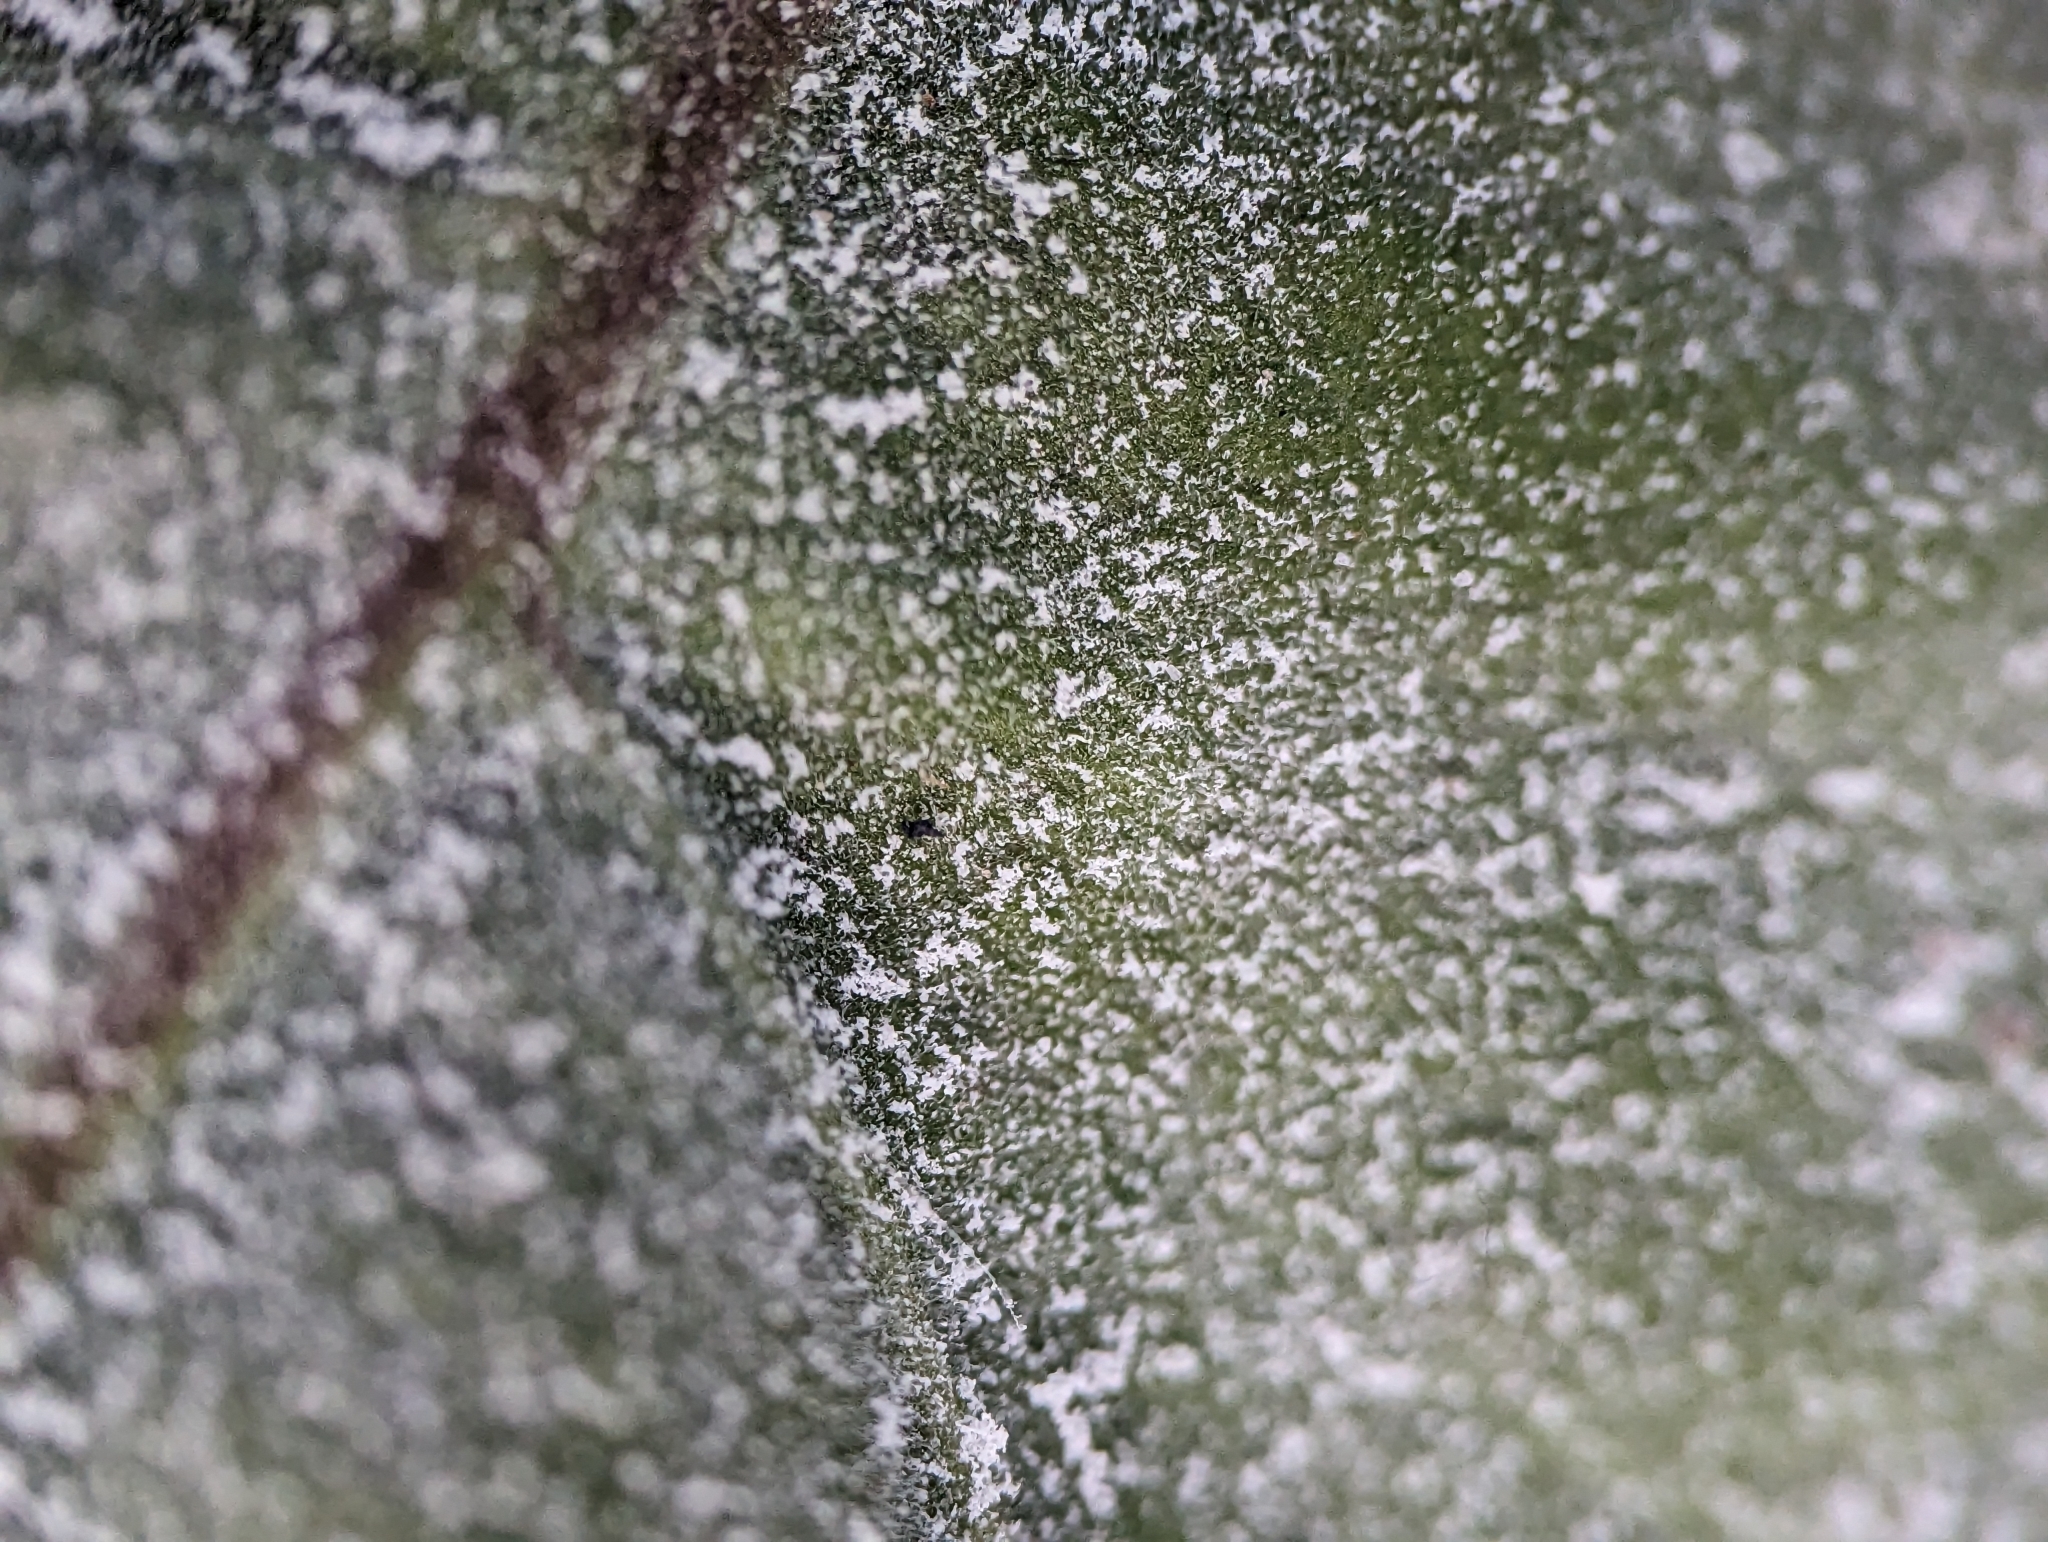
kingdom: Fungi
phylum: Ascomycota
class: Leotiomycetes
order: Helotiales
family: Erysiphaceae
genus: Podosphaera
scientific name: Podosphaera erigerontis-canadensis
